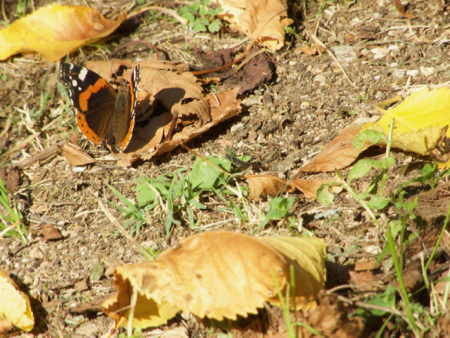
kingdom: Animalia
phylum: Arthropoda
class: Insecta
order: Lepidoptera
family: Nymphalidae
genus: Vanessa
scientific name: Vanessa atalanta
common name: Red admiral
